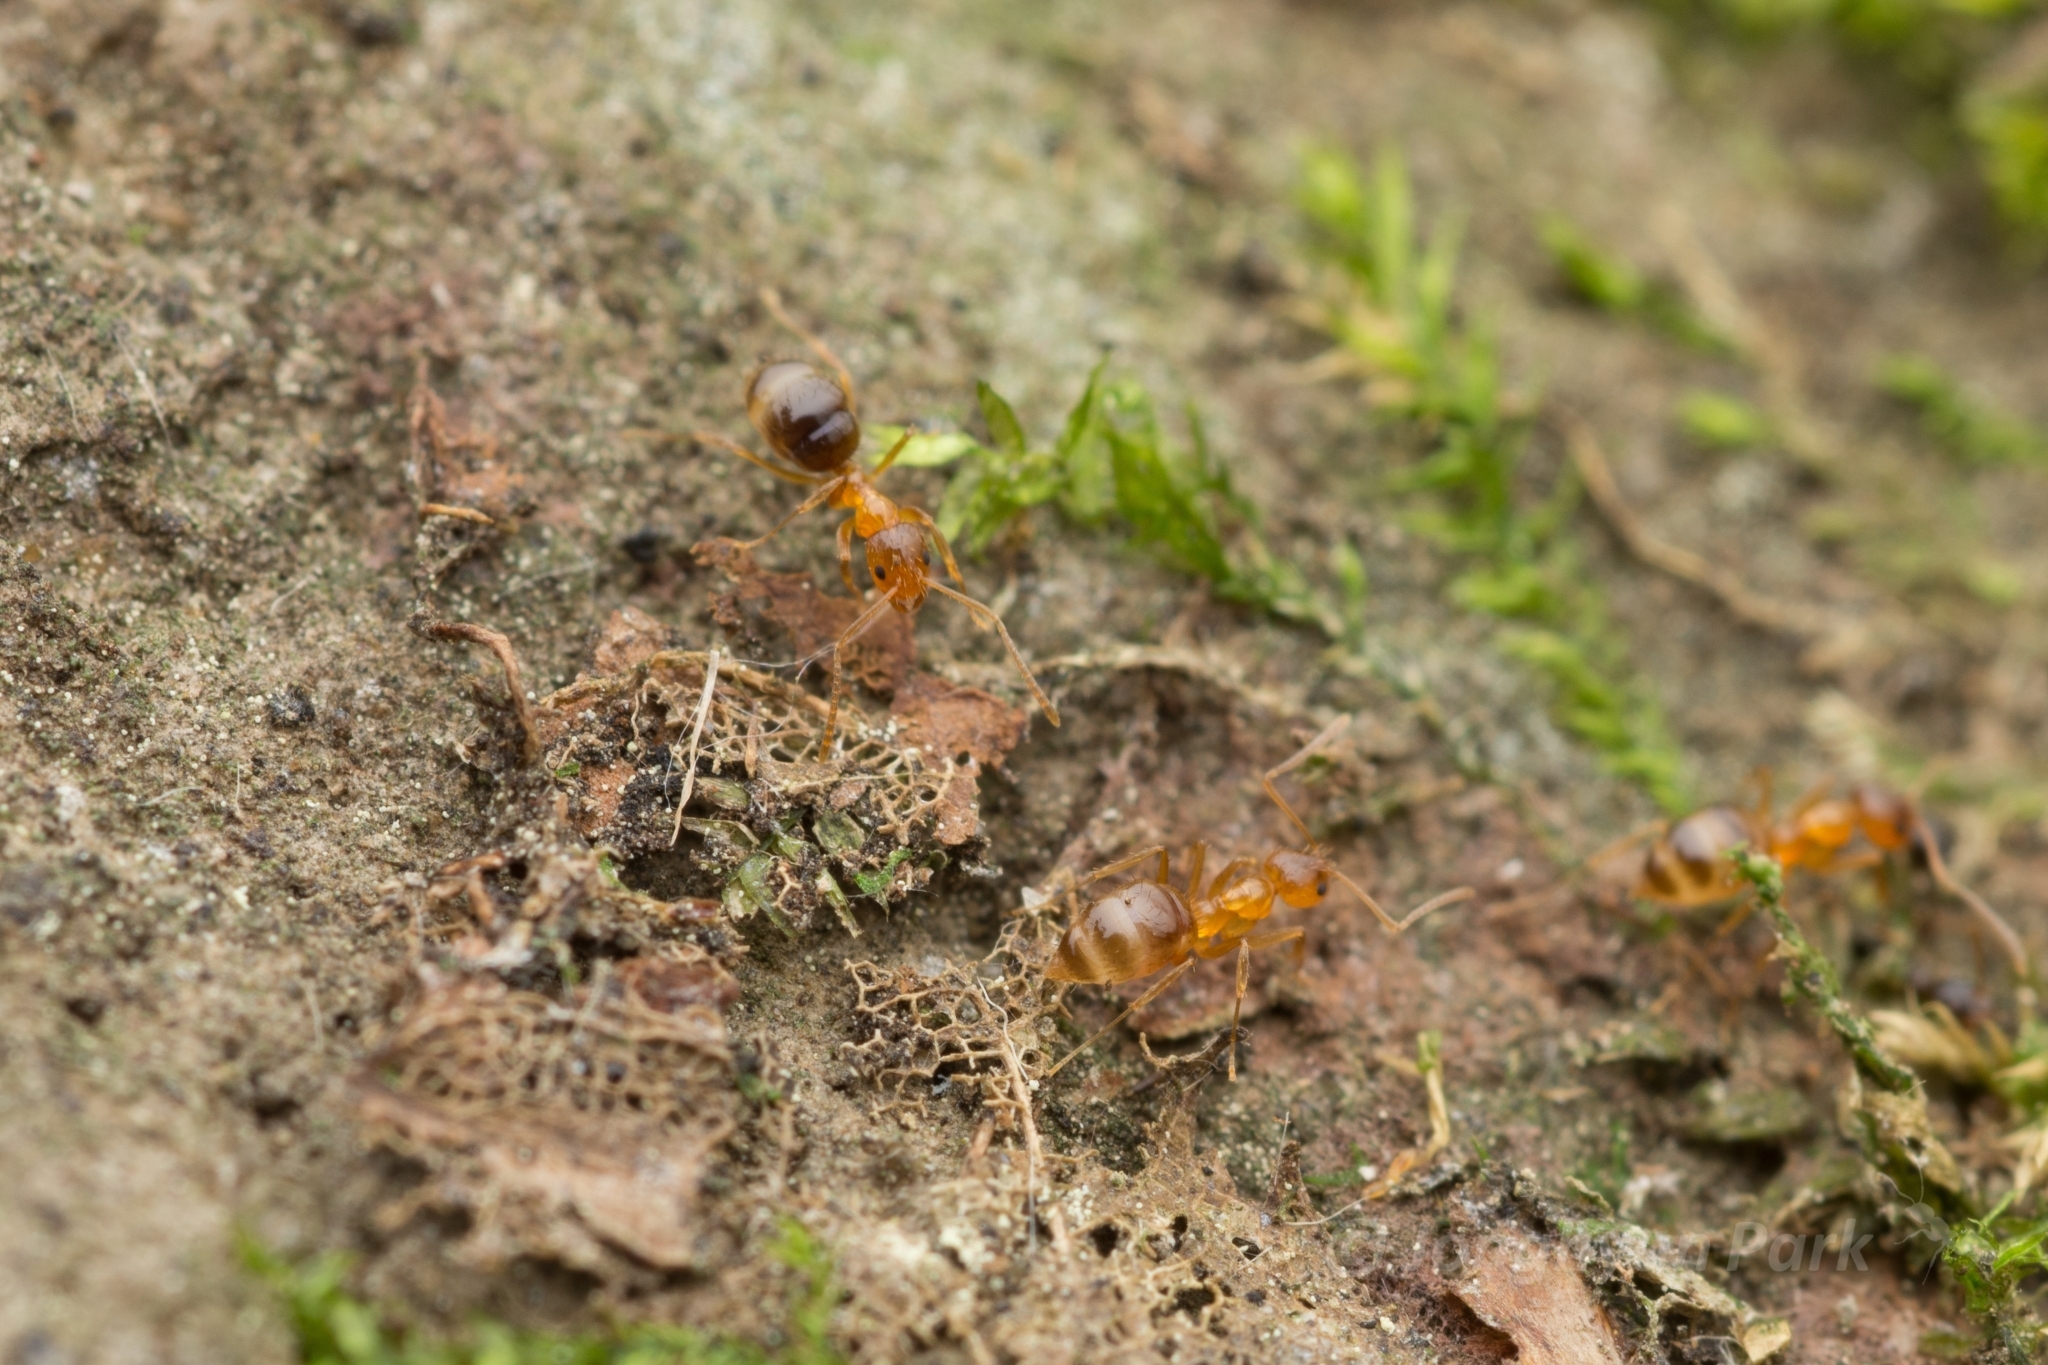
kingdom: Animalia
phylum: Arthropoda
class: Insecta
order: Hymenoptera
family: Formicidae
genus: Paratrechina
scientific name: Paratrechina flavipes
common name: Eastern asian formicine ant
